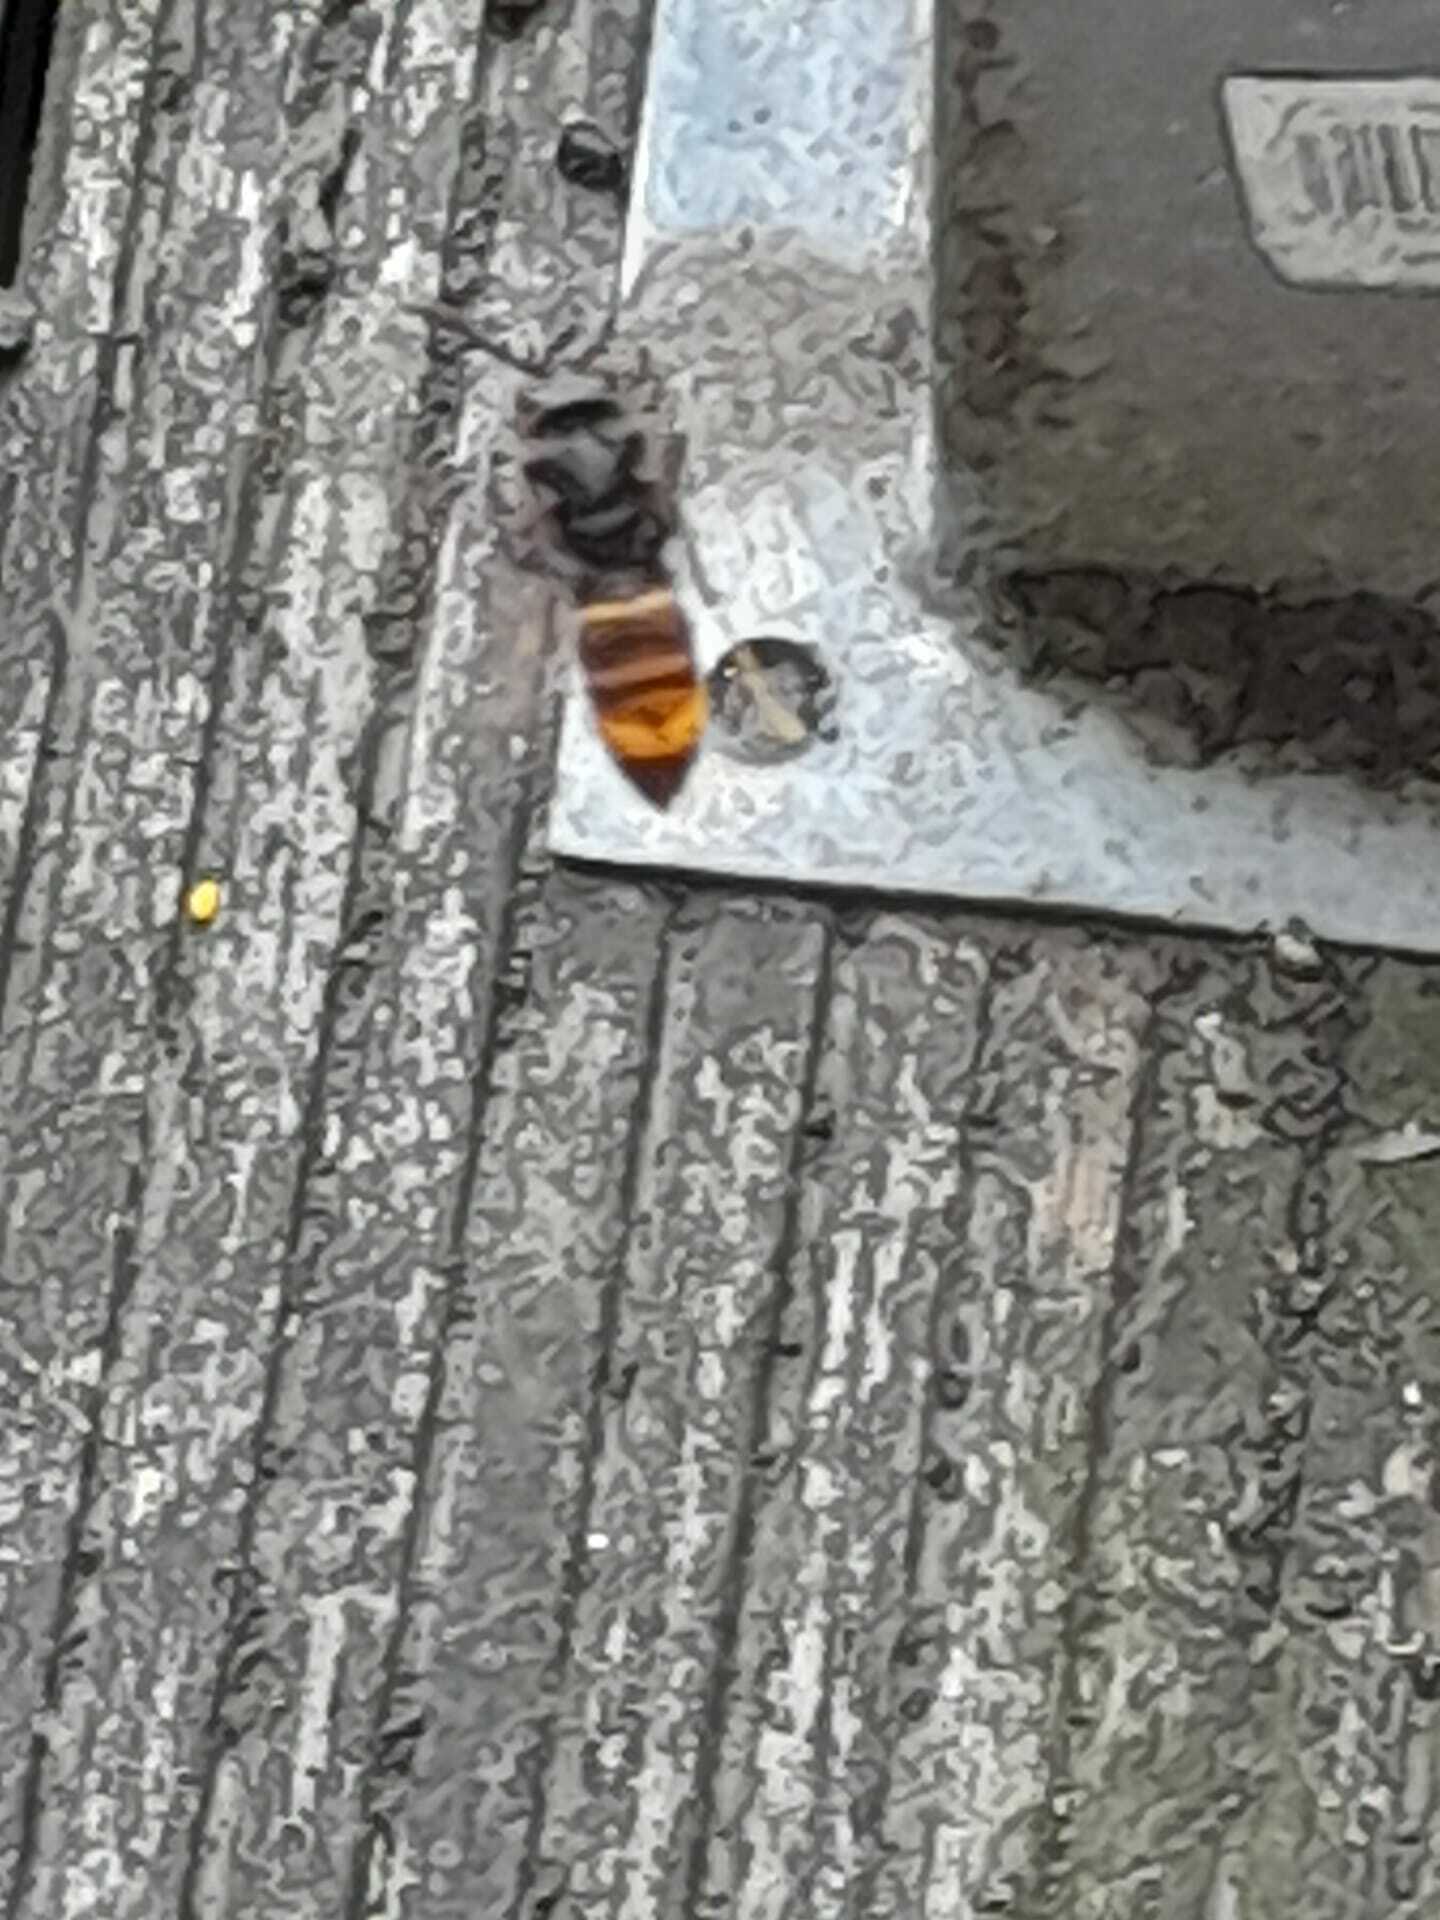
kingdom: Animalia
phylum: Arthropoda
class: Insecta
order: Hymenoptera
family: Vespidae
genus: Vespa
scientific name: Vespa velutina
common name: Asian hornet
